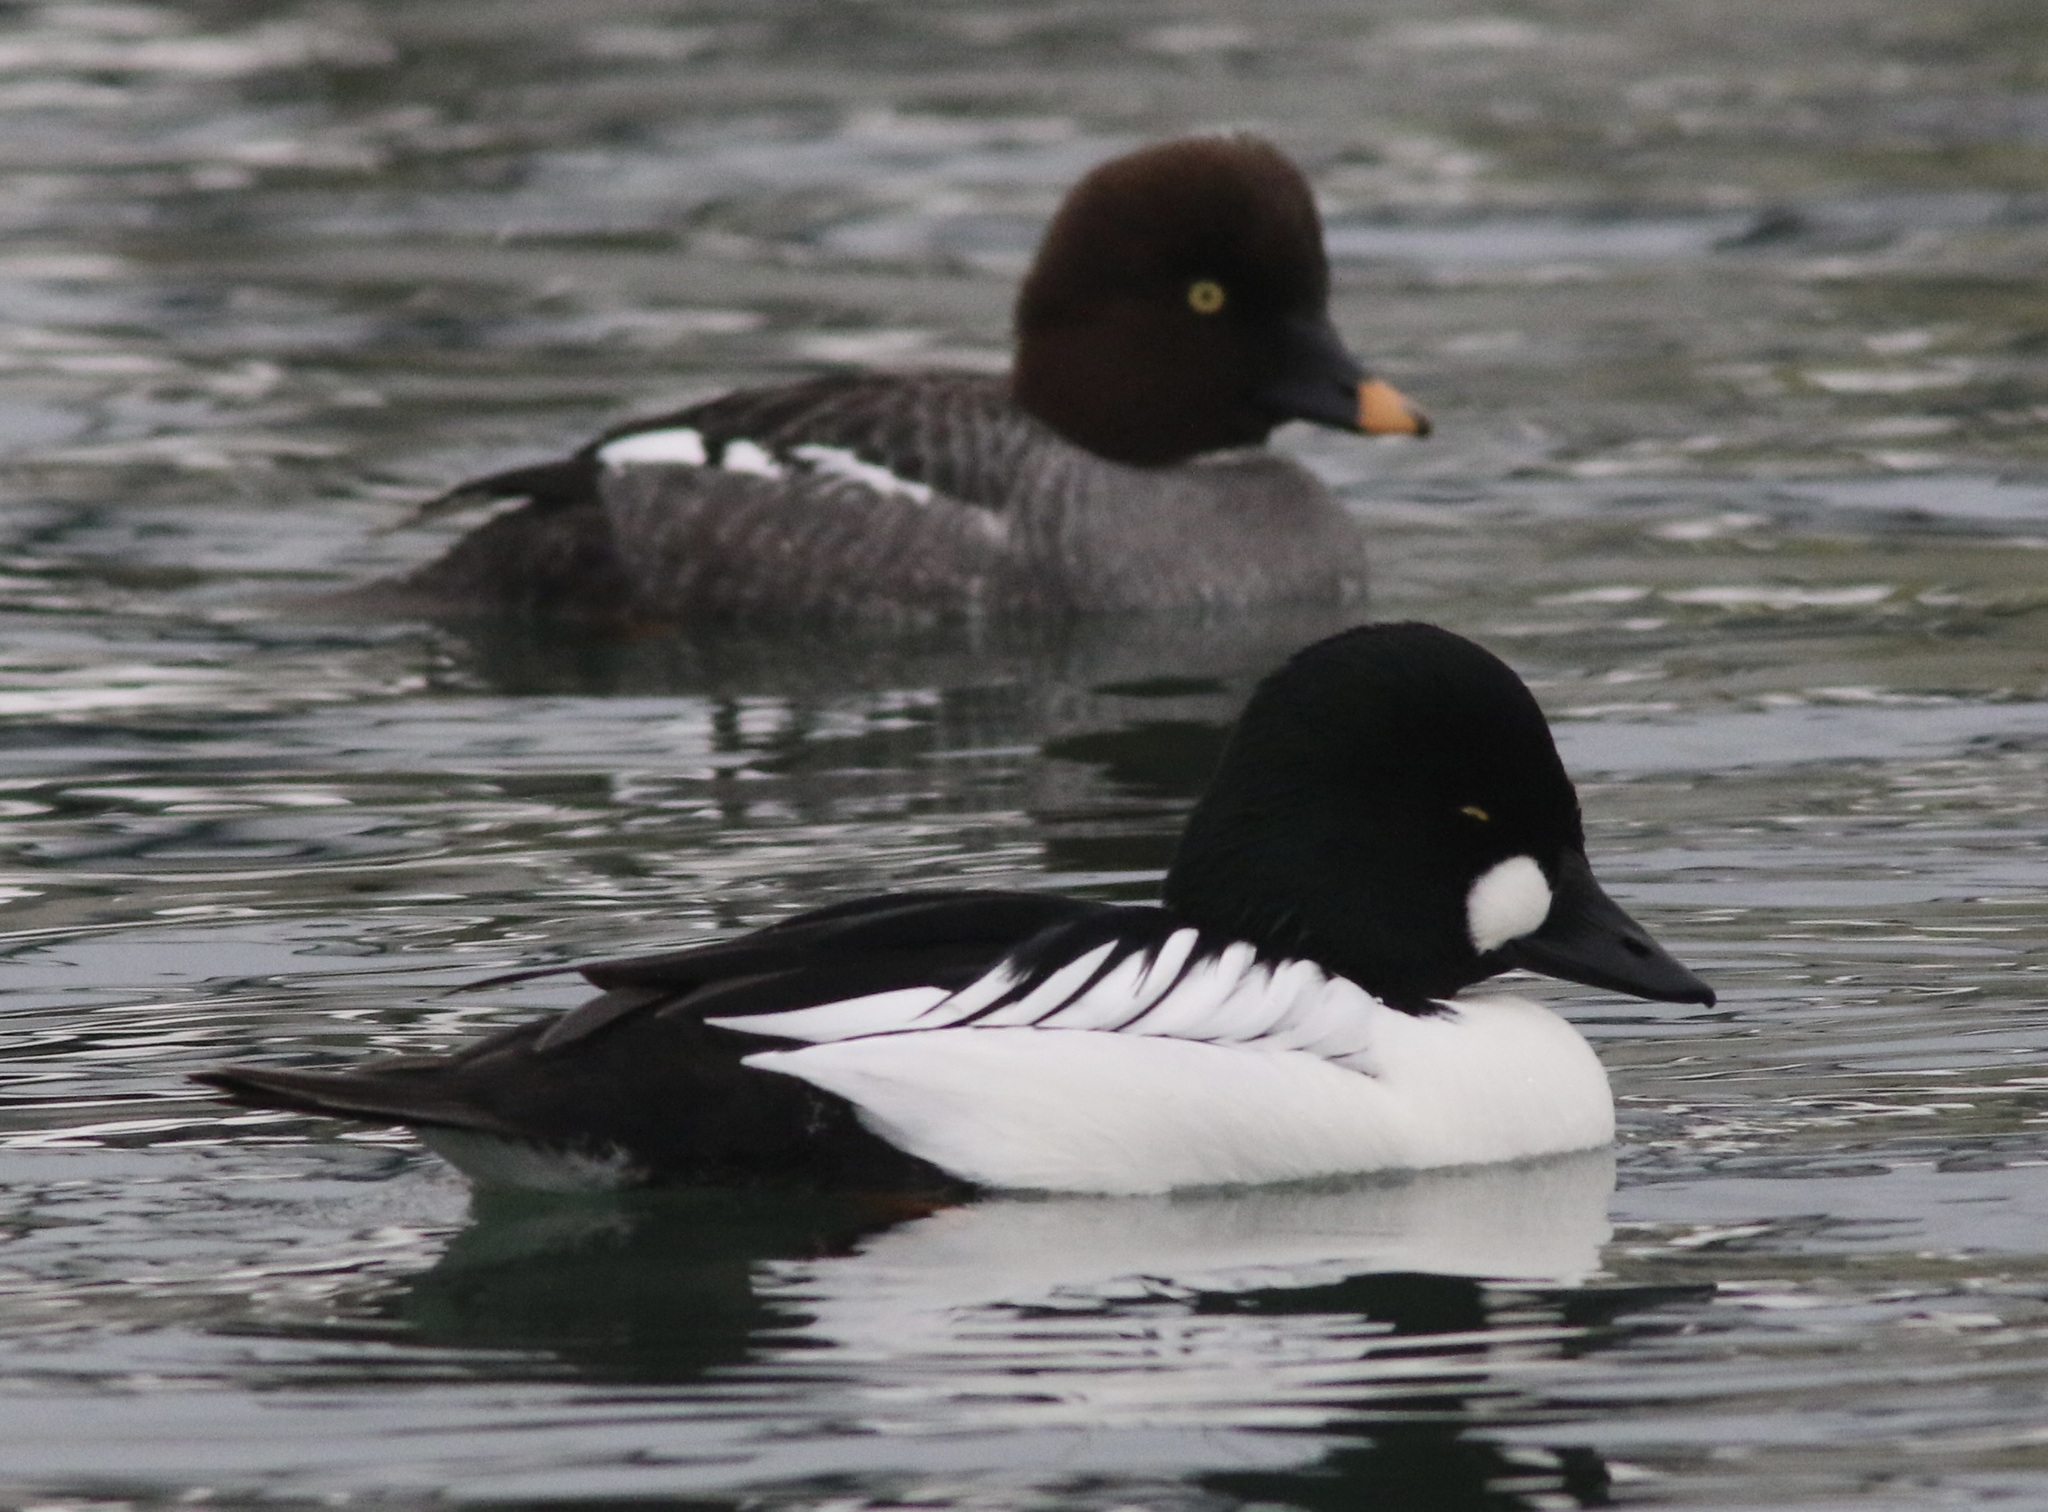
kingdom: Animalia
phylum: Chordata
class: Aves
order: Anseriformes
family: Anatidae
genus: Bucephala
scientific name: Bucephala clangula
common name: Common goldeneye
